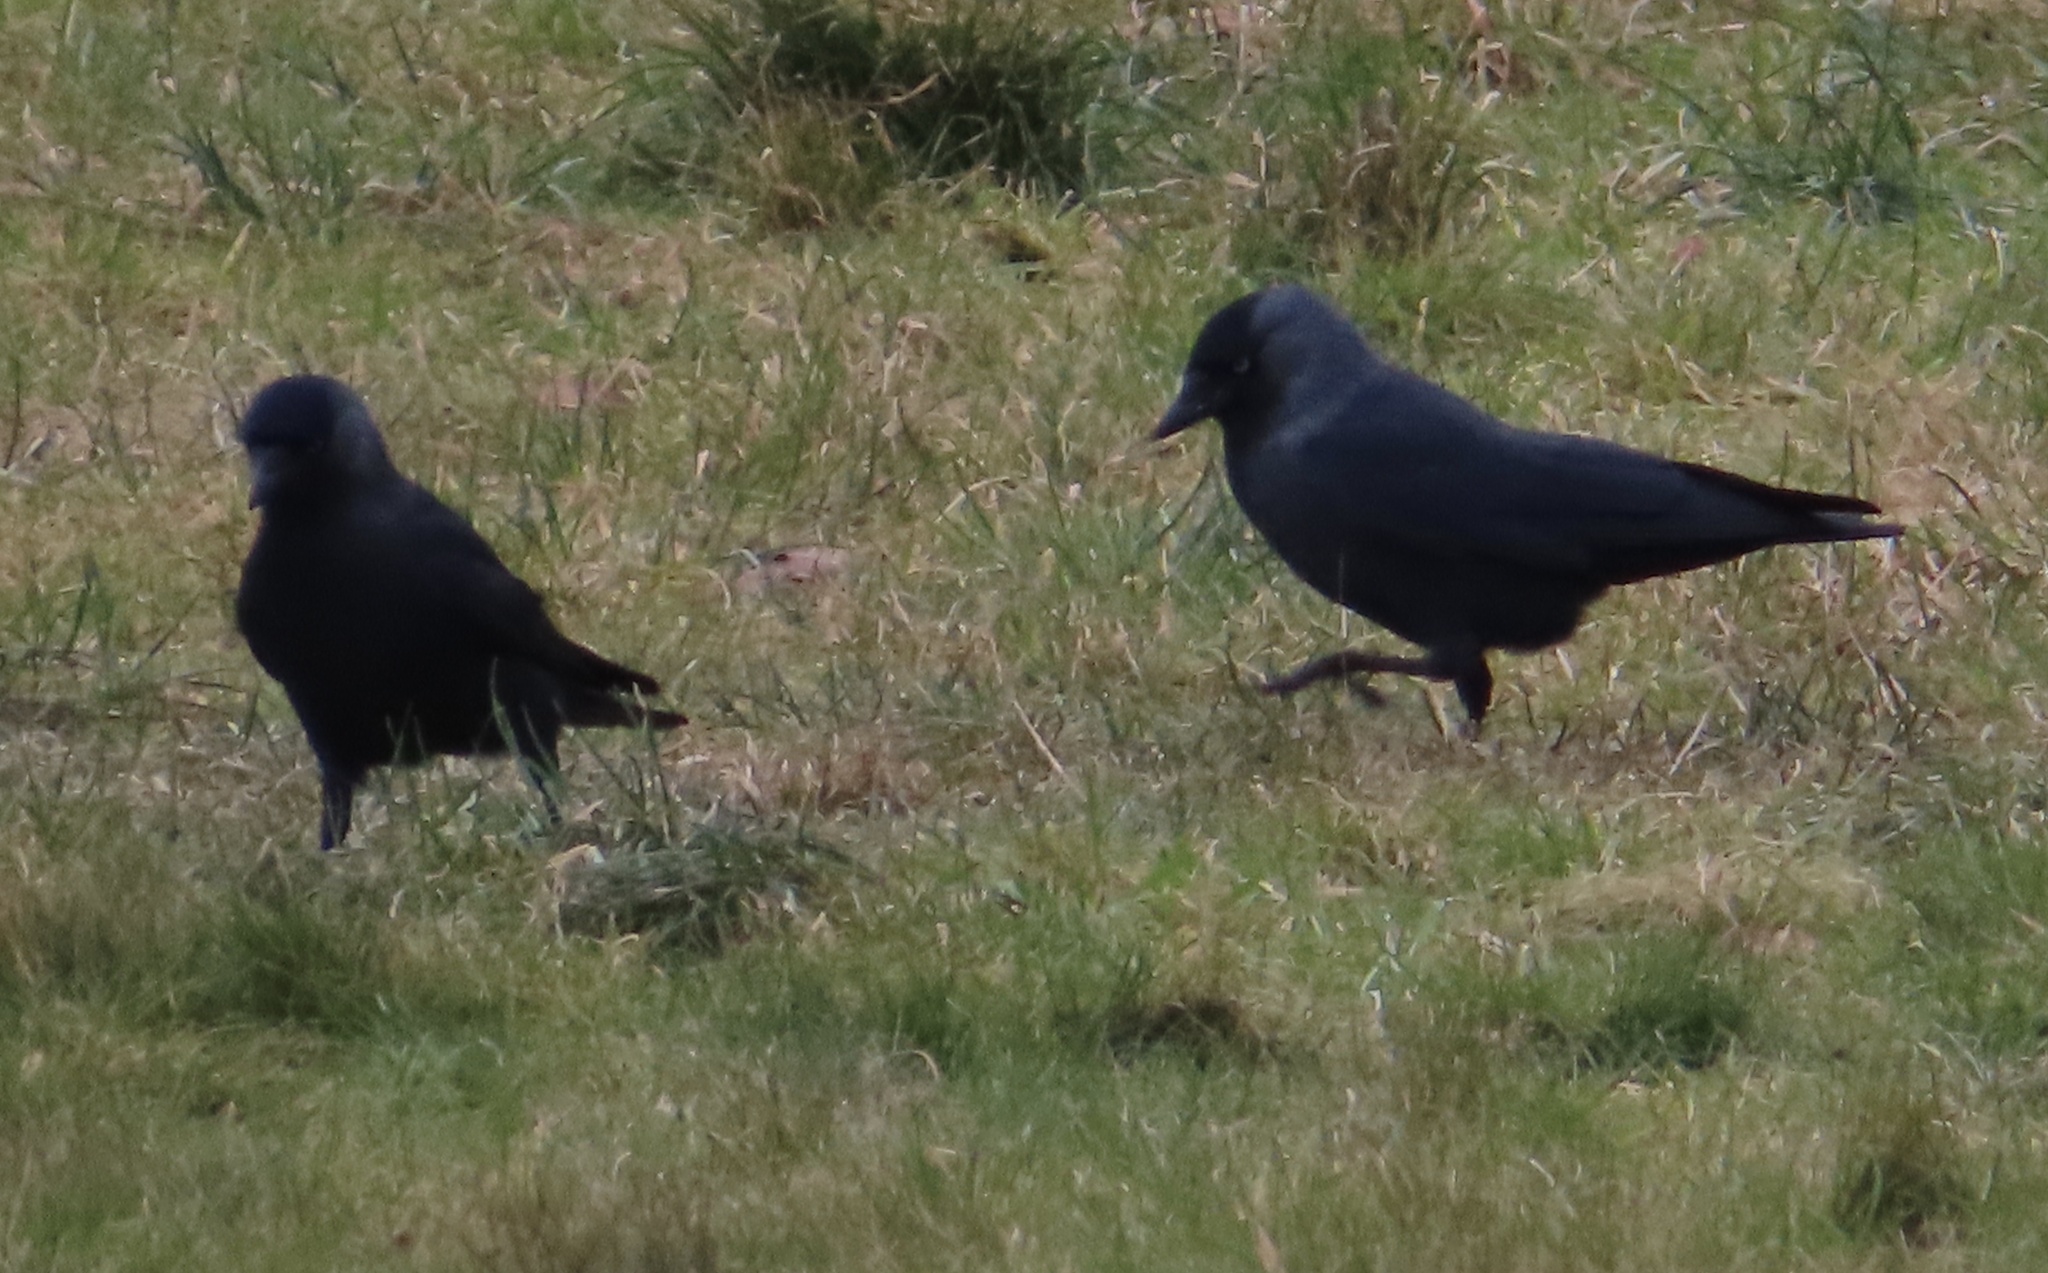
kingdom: Animalia
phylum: Chordata
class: Aves
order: Passeriformes
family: Corvidae
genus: Coloeus
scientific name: Coloeus monedula
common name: Western jackdaw
